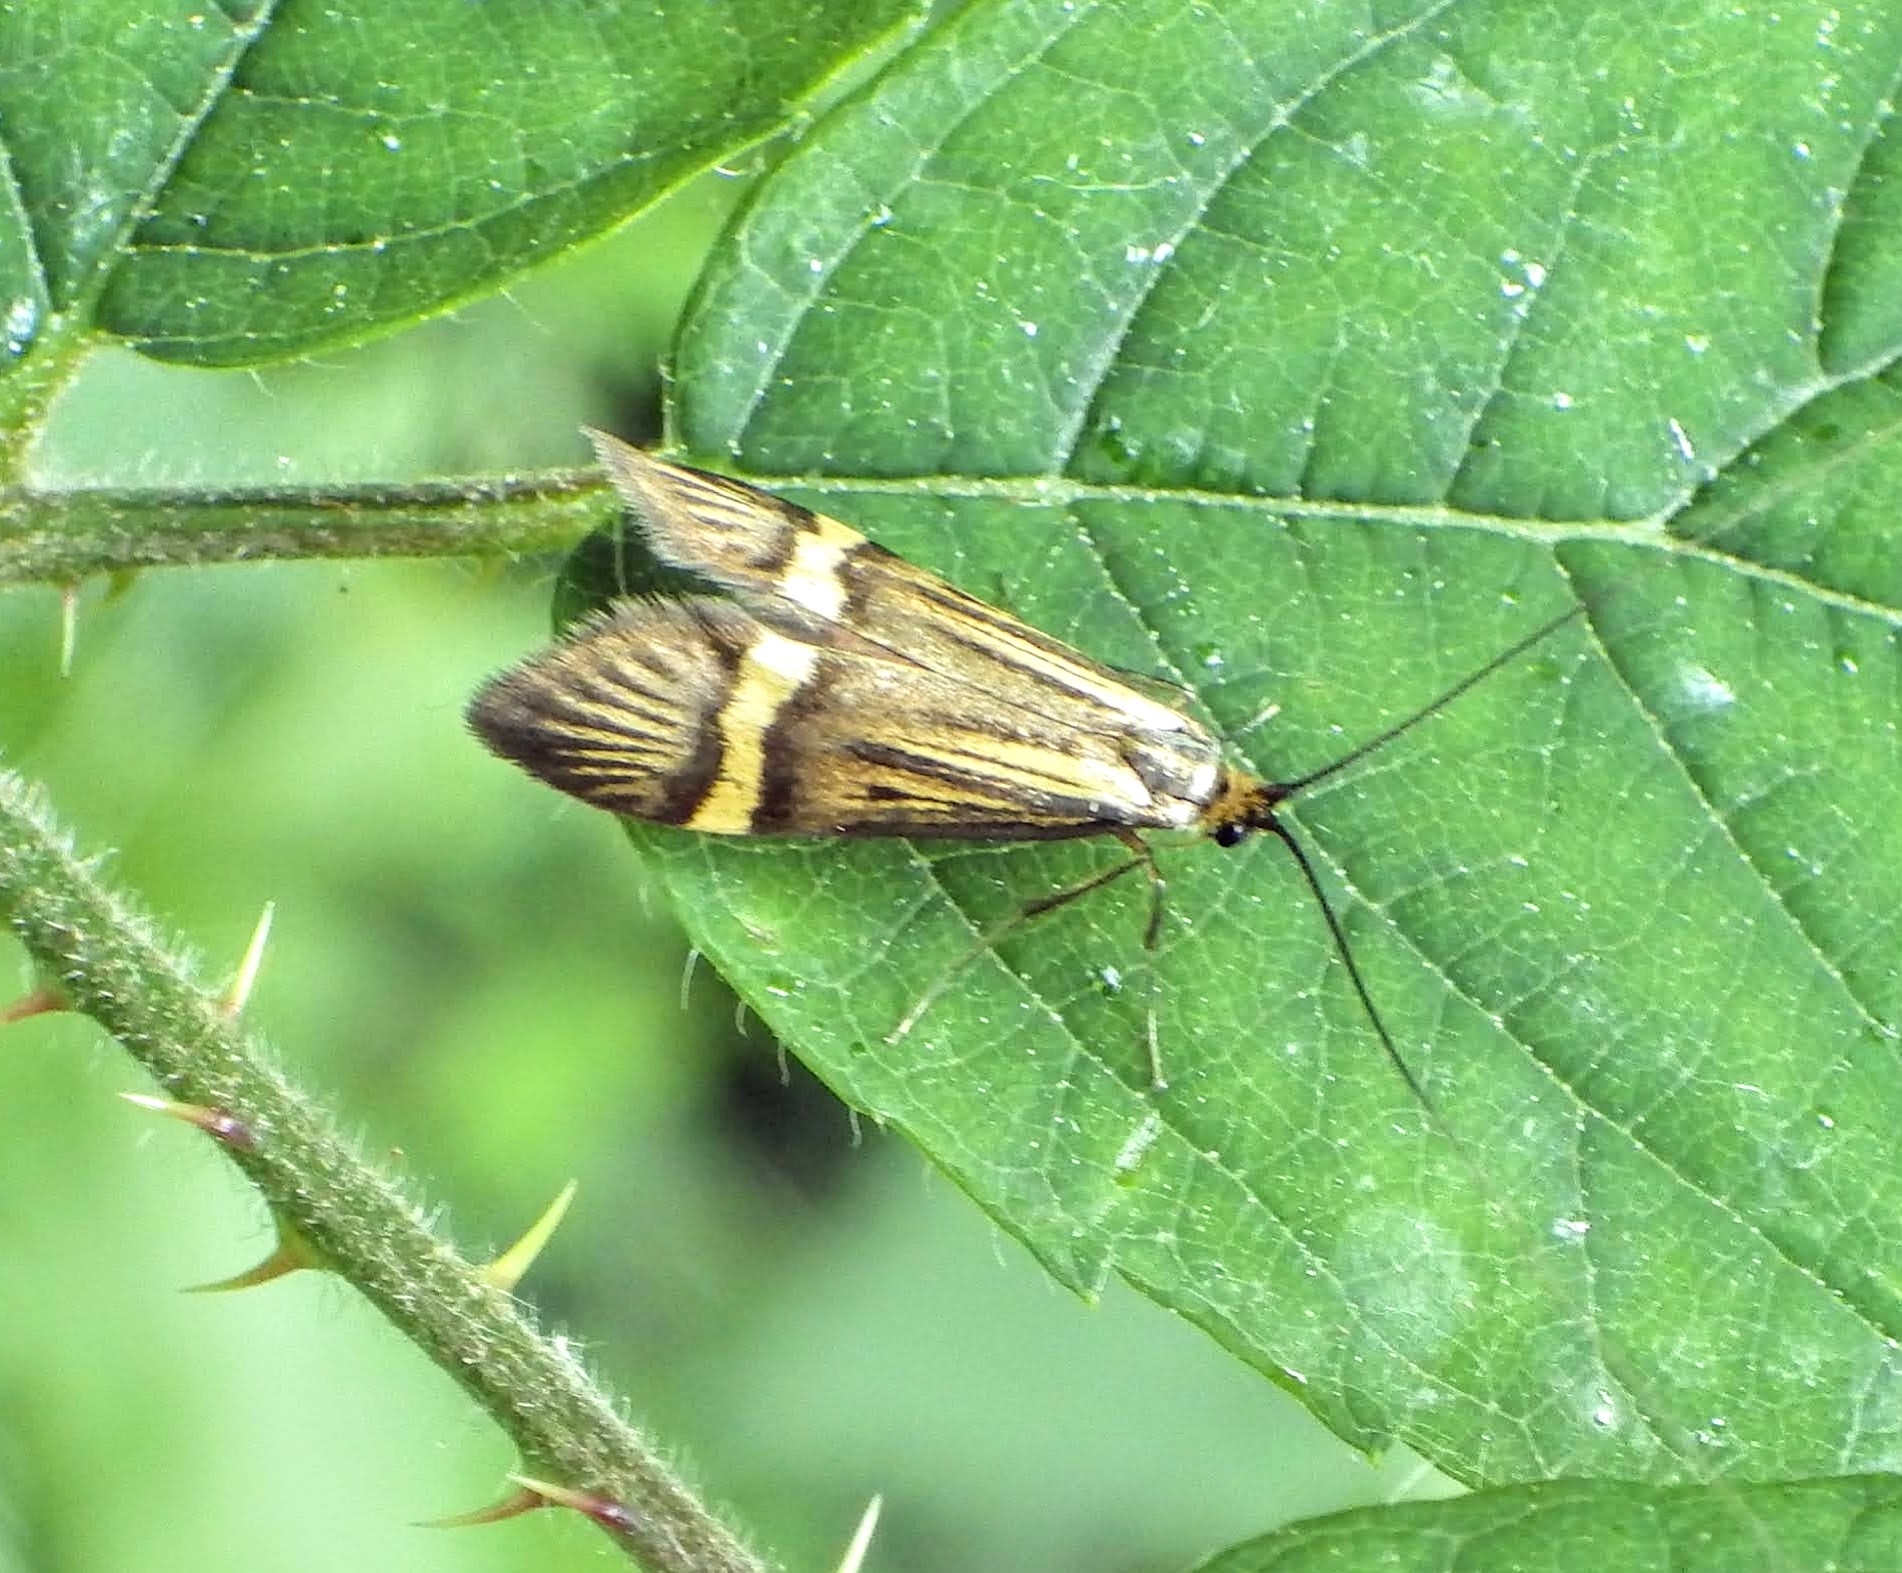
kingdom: Animalia
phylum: Arthropoda
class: Insecta
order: Lepidoptera
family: Adelidae
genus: Nemophora
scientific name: Nemophora degeerella
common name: Yellow-barred long-horn
